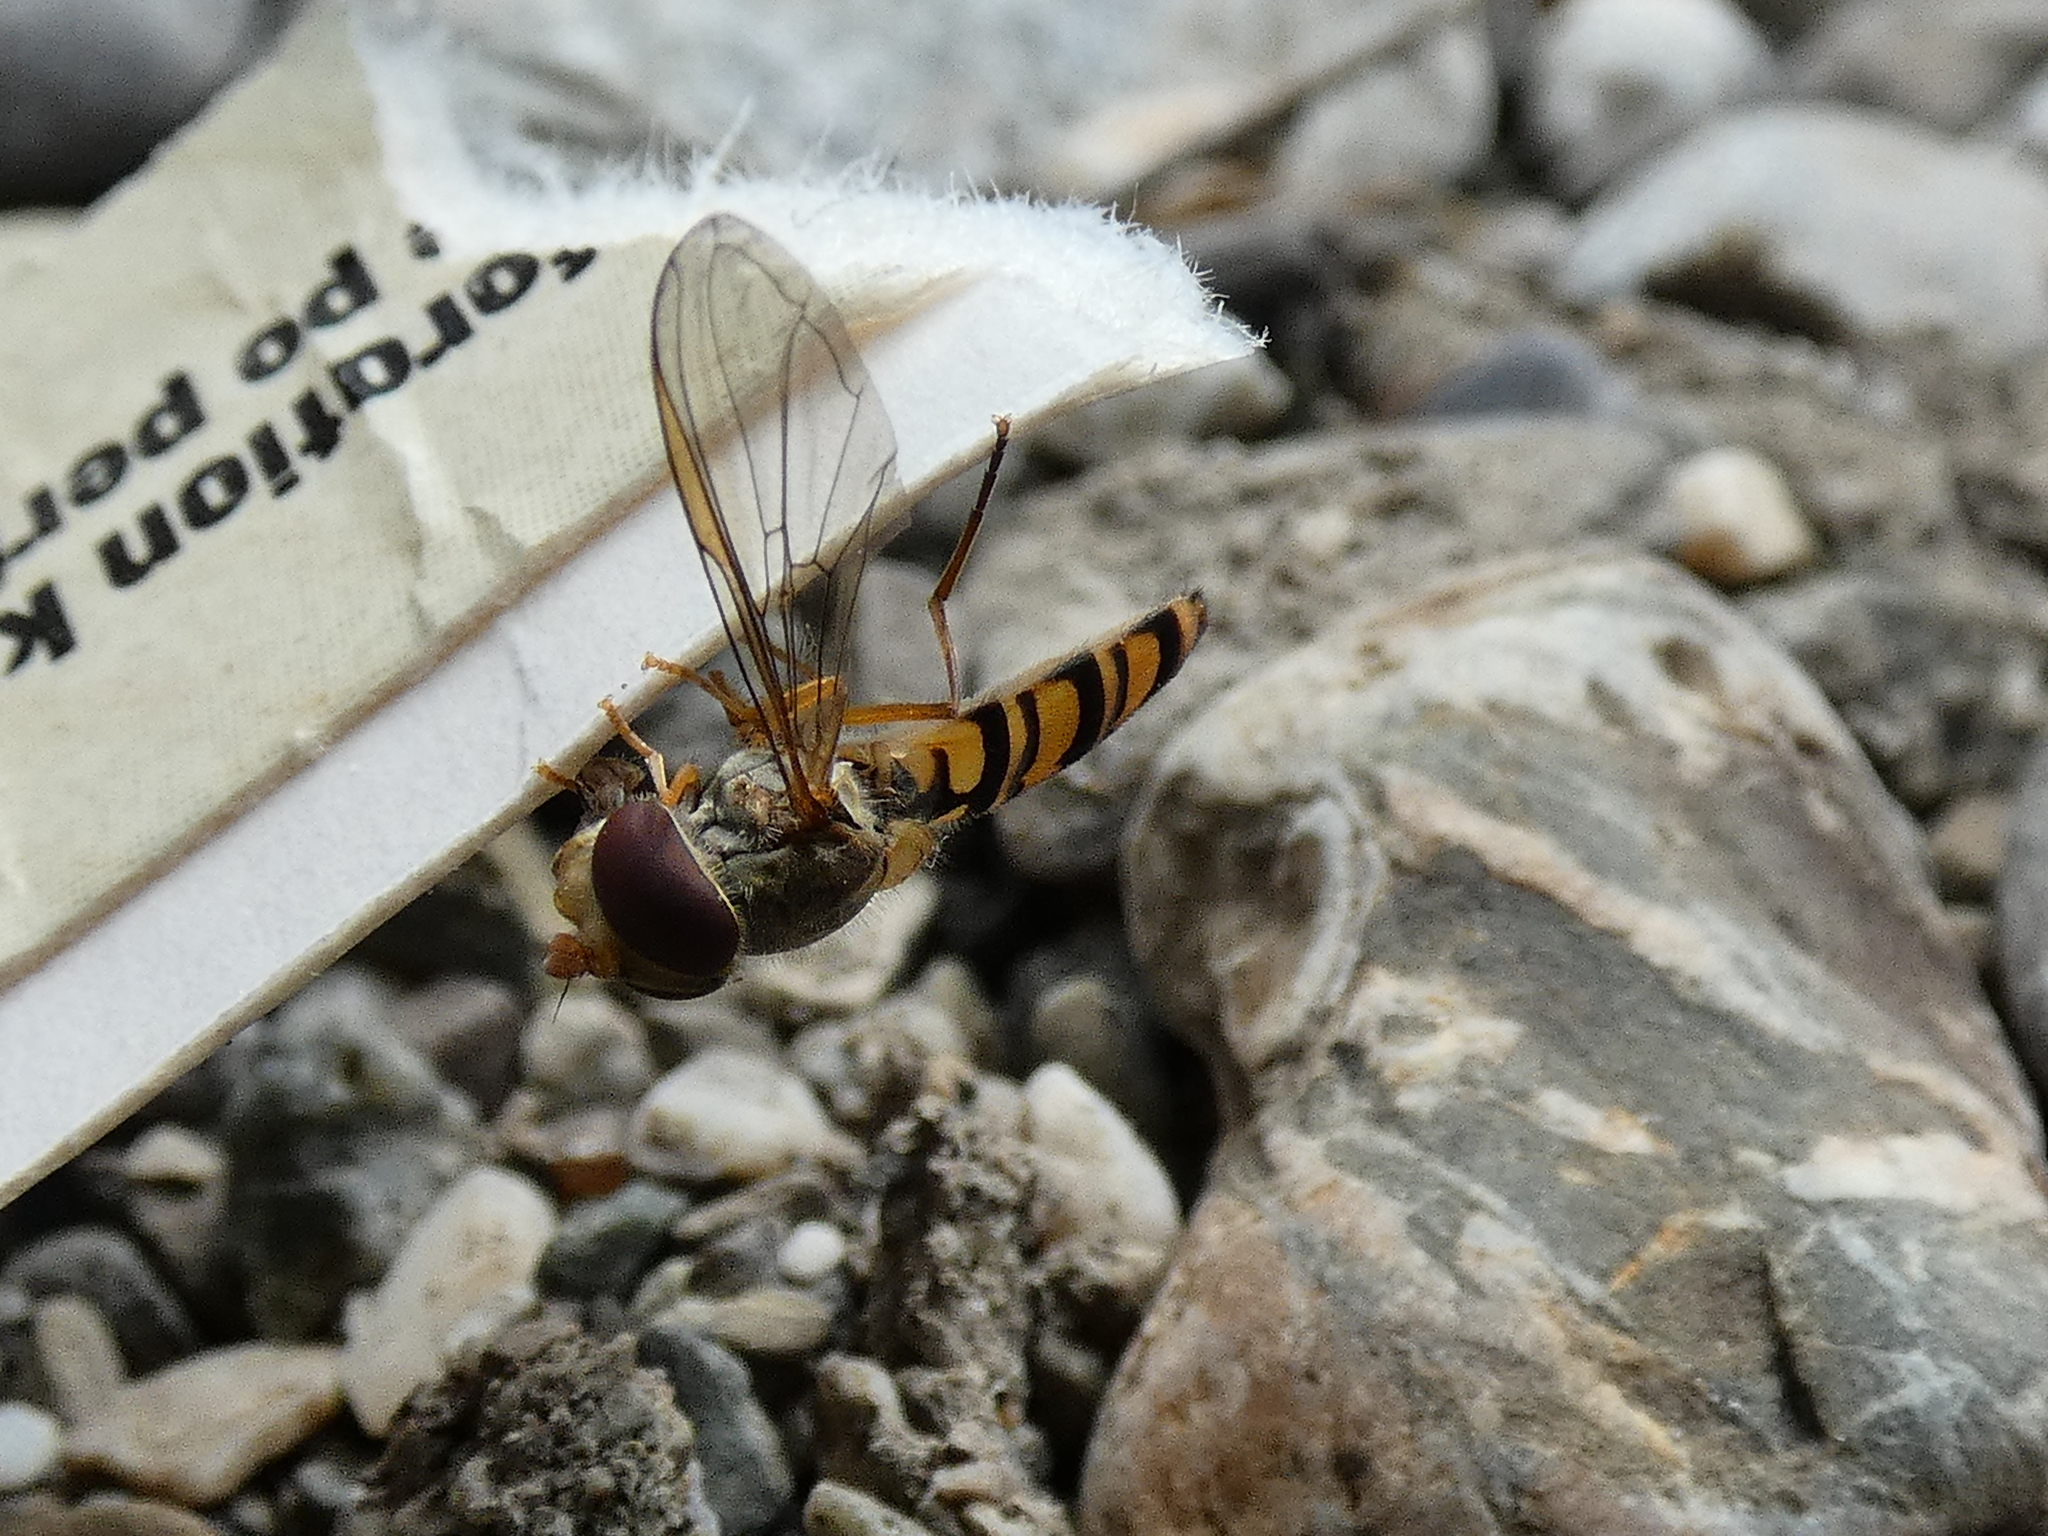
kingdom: Animalia
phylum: Arthropoda
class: Insecta
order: Diptera
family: Syrphidae
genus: Episyrphus
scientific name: Episyrphus balteatus
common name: Marmalade hoverfly
